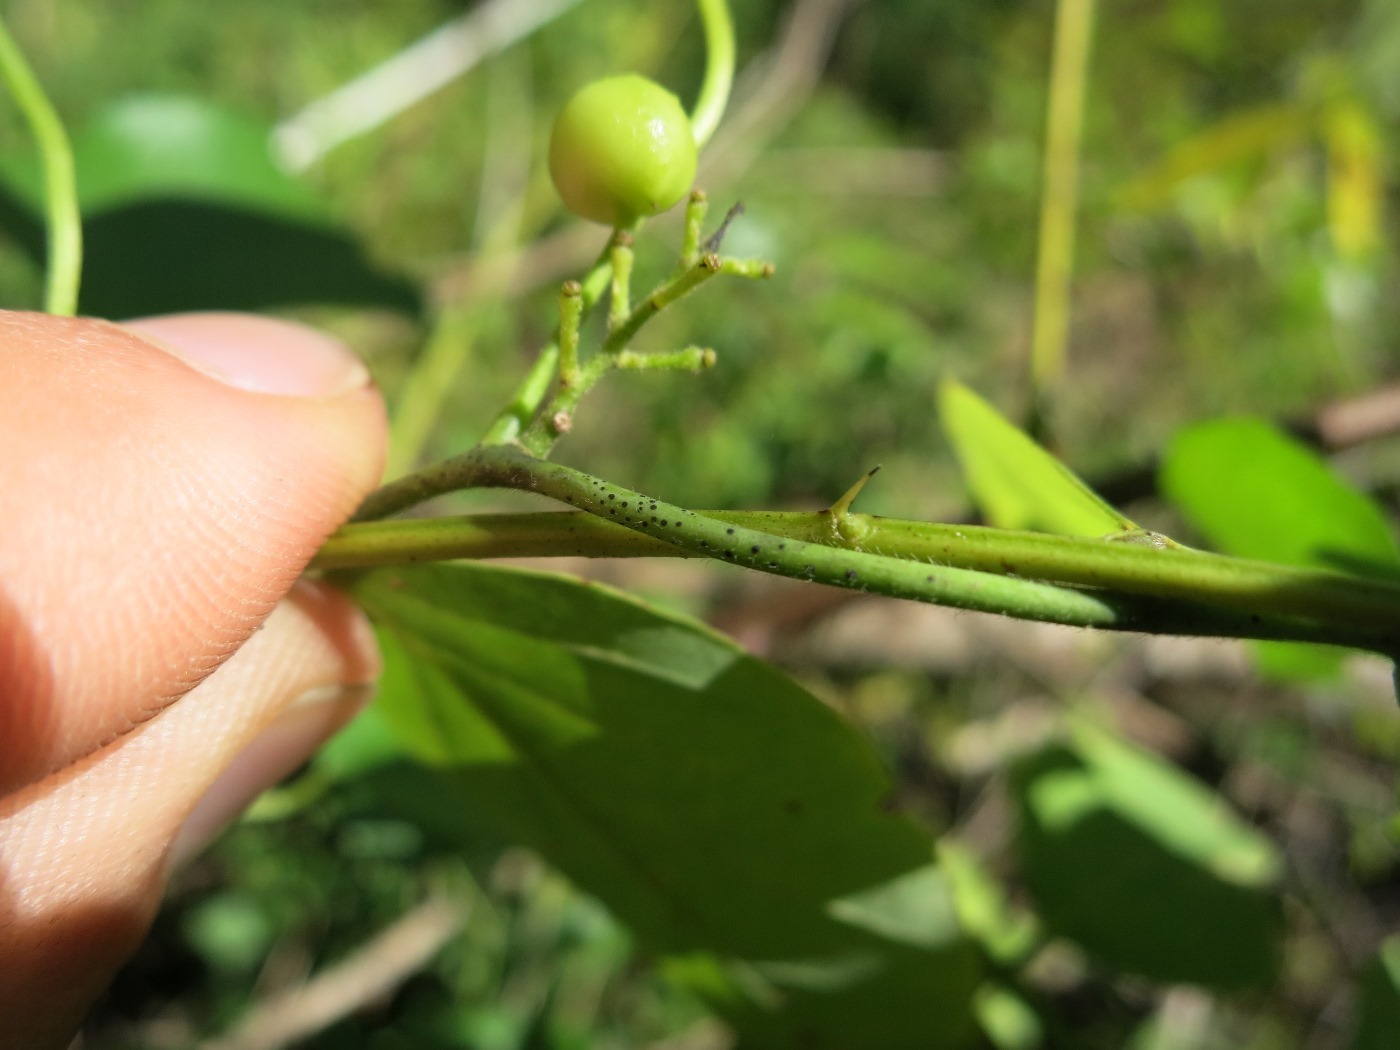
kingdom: Plantae
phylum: Tracheophyta
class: Magnoliopsida
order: Ranunculales
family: Menispermaceae
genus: Cocculus
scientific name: Cocculus carolinus
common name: Carolina moonseed
